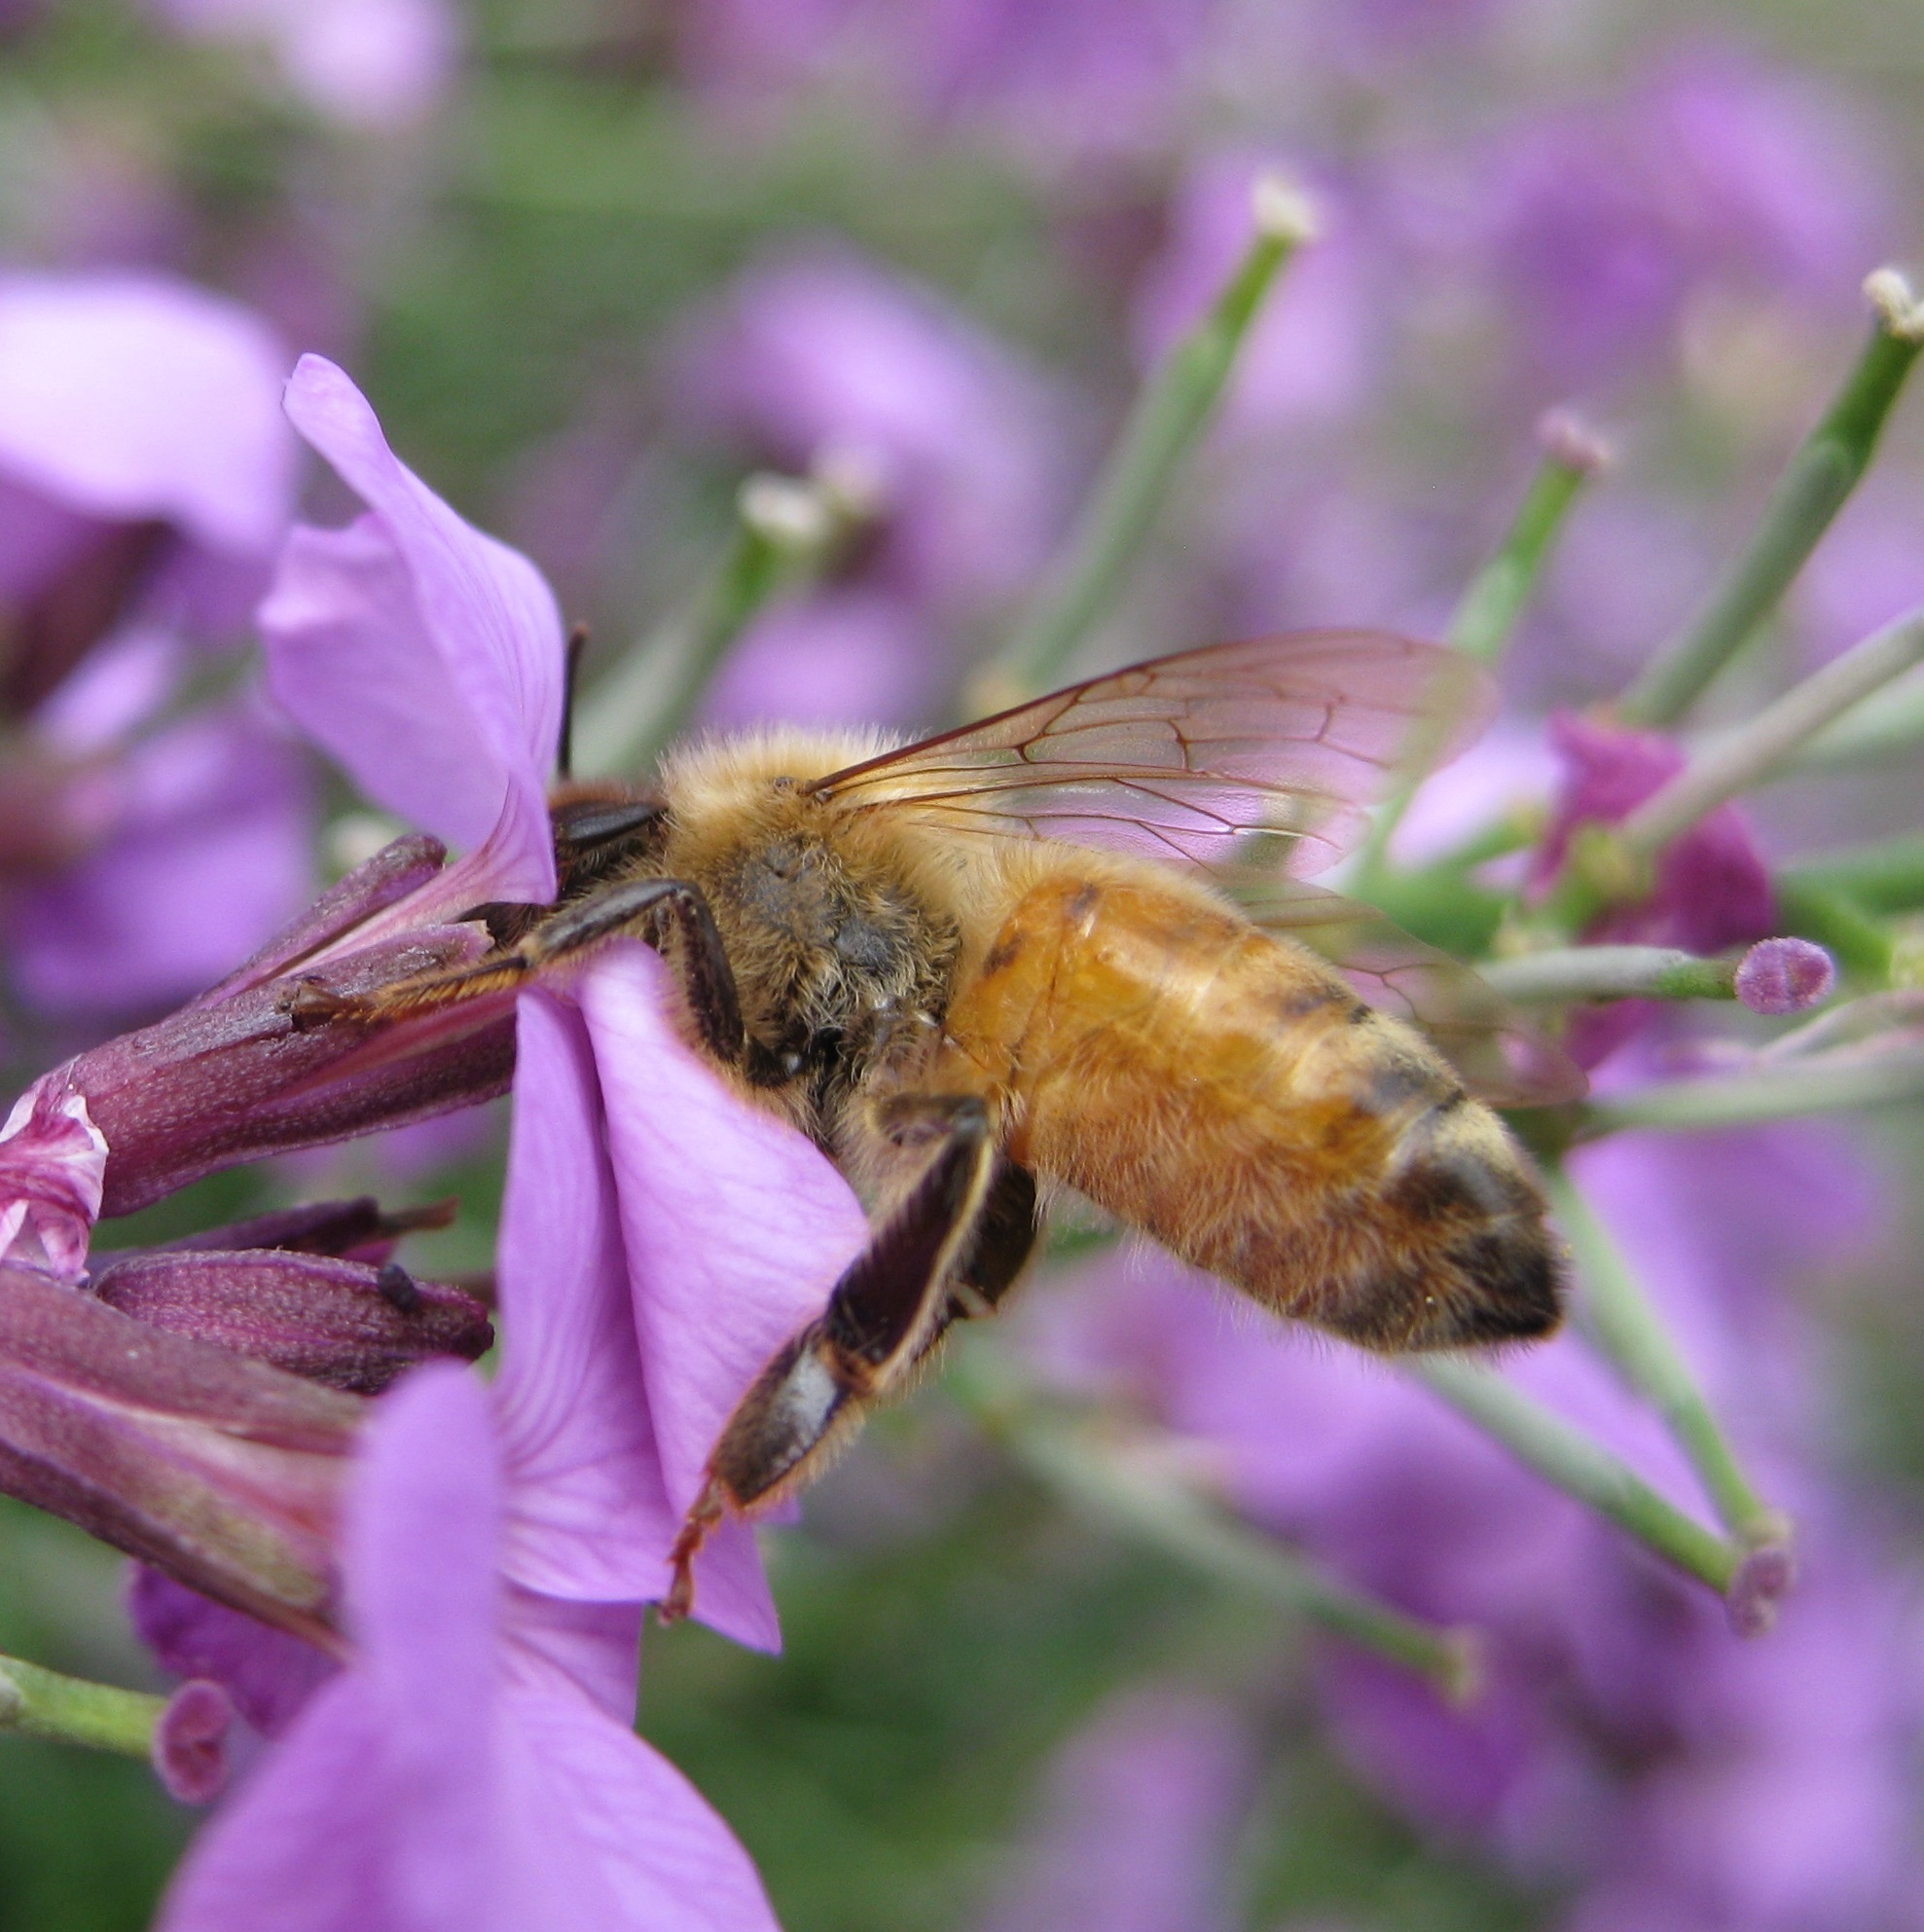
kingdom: Animalia
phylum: Arthropoda
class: Insecta
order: Hymenoptera
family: Apidae
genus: Apis
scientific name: Apis mellifera
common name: Honey bee
